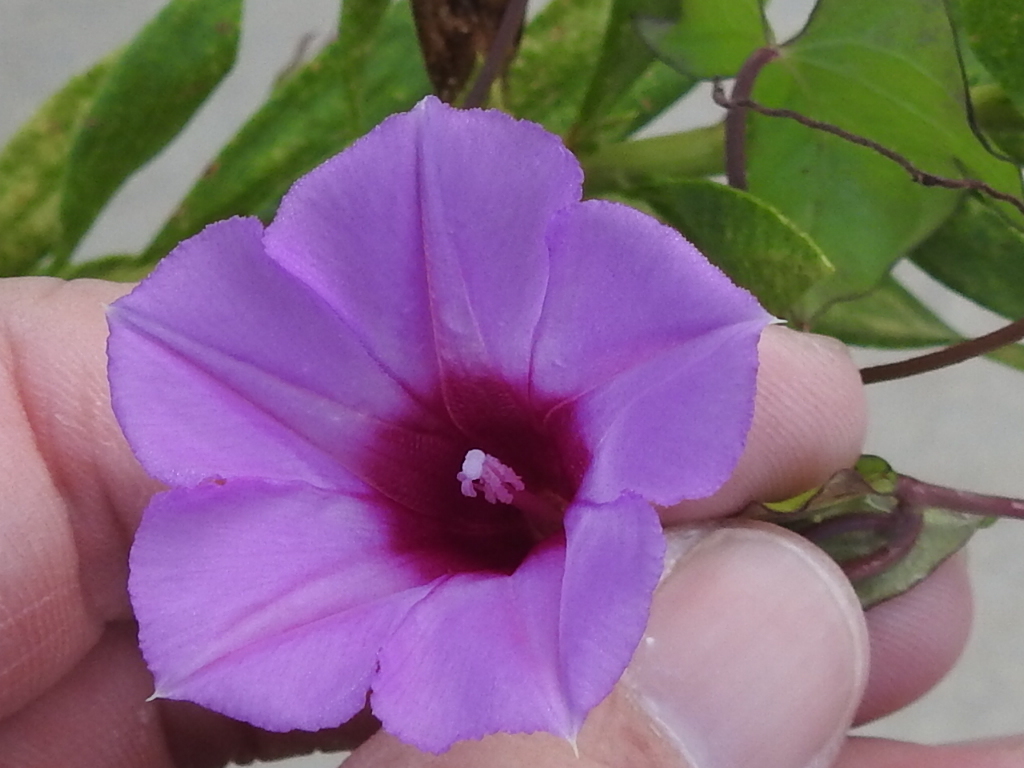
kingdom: Plantae
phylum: Tracheophyta
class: Magnoliopsida
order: Solanales
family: Convolvulaceae
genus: Ipomoea
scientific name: Ipomoea cordatotriloba
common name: Cotton morning glory
